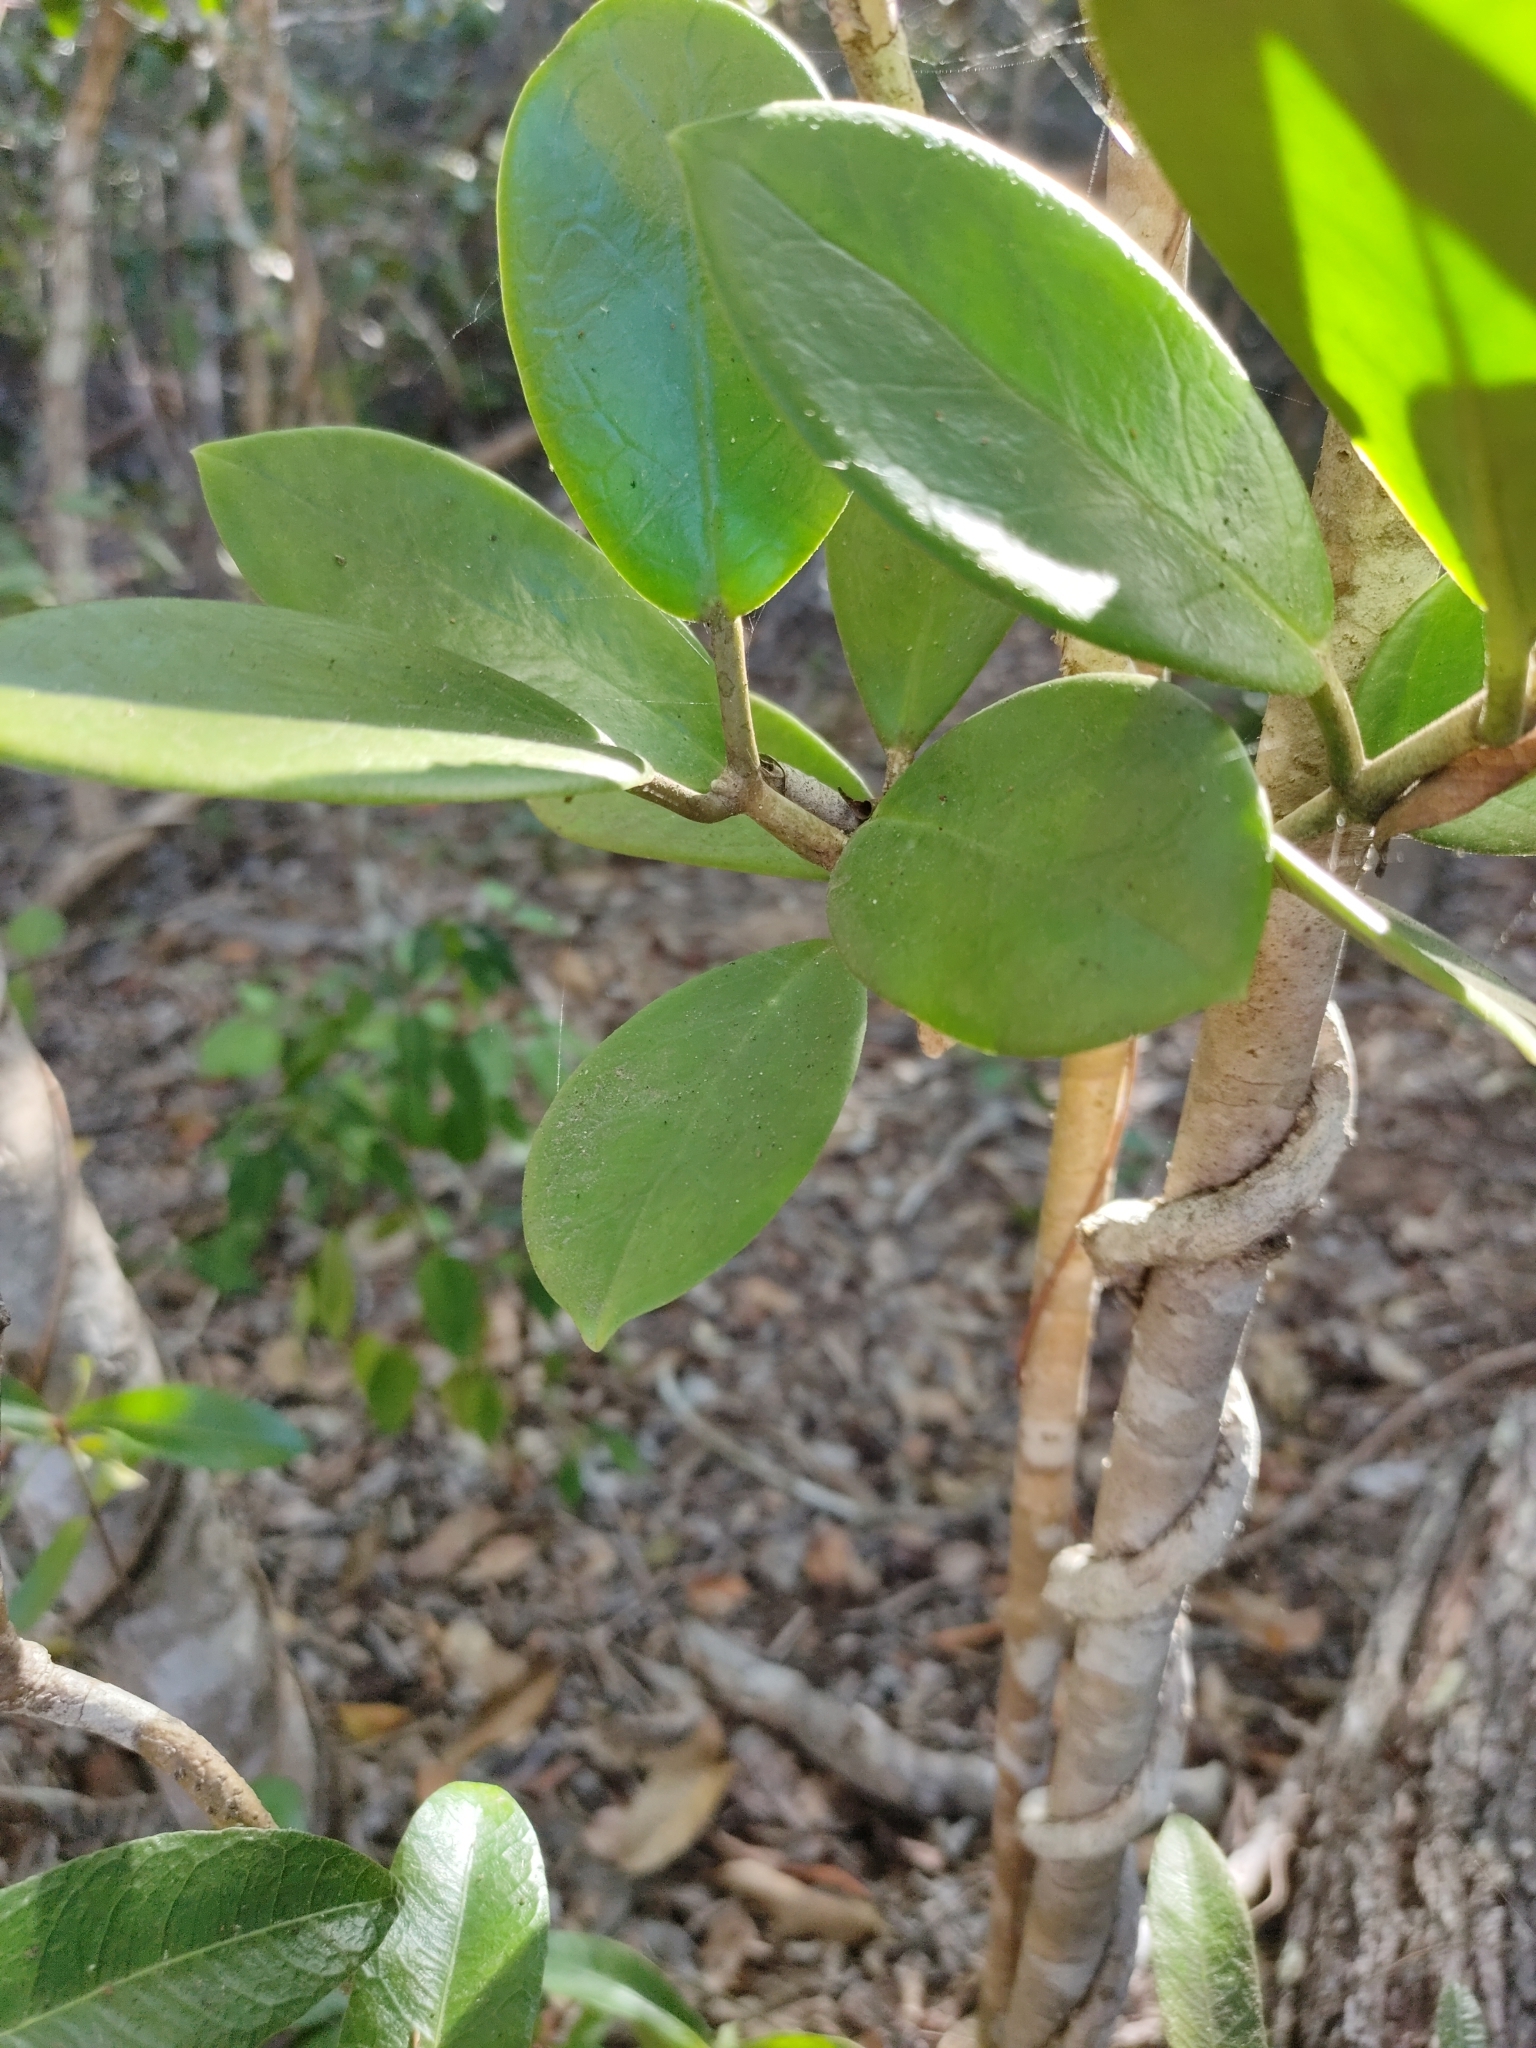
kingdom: Plantae
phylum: Tracheophyta
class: Magnoliopsida
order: Gentianales
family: Apocynaceae
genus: Hoya
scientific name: Hoya australis
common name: Wax flower
